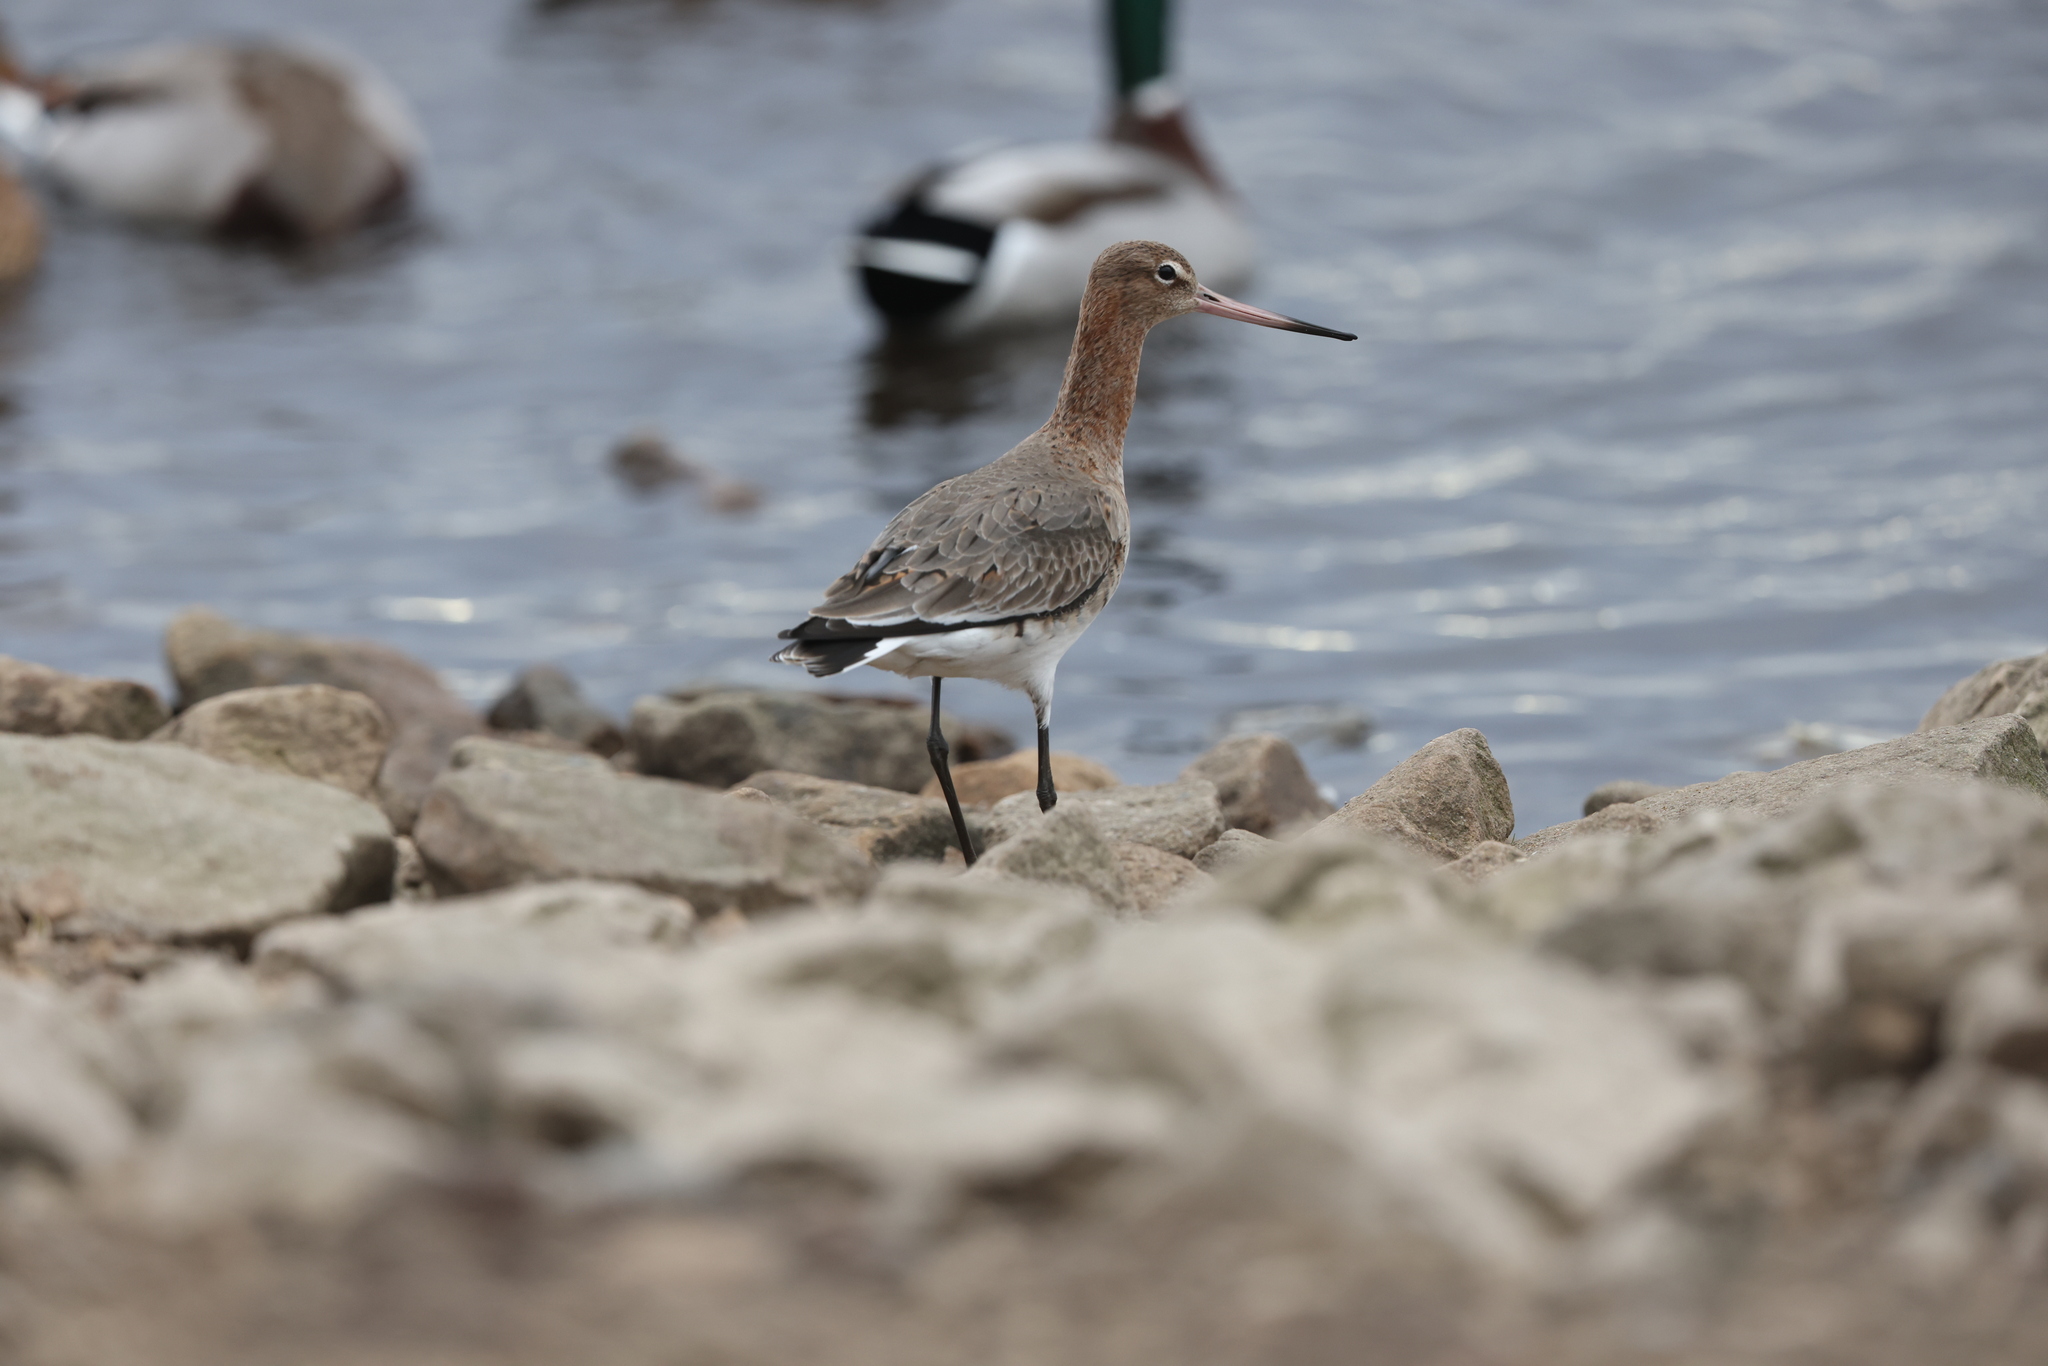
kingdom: Animalia
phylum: Chordata
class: Aves
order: Charadriiformes
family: Scolopacidae
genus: Limosa
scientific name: Limosa limosa
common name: Black-tailed godwit
